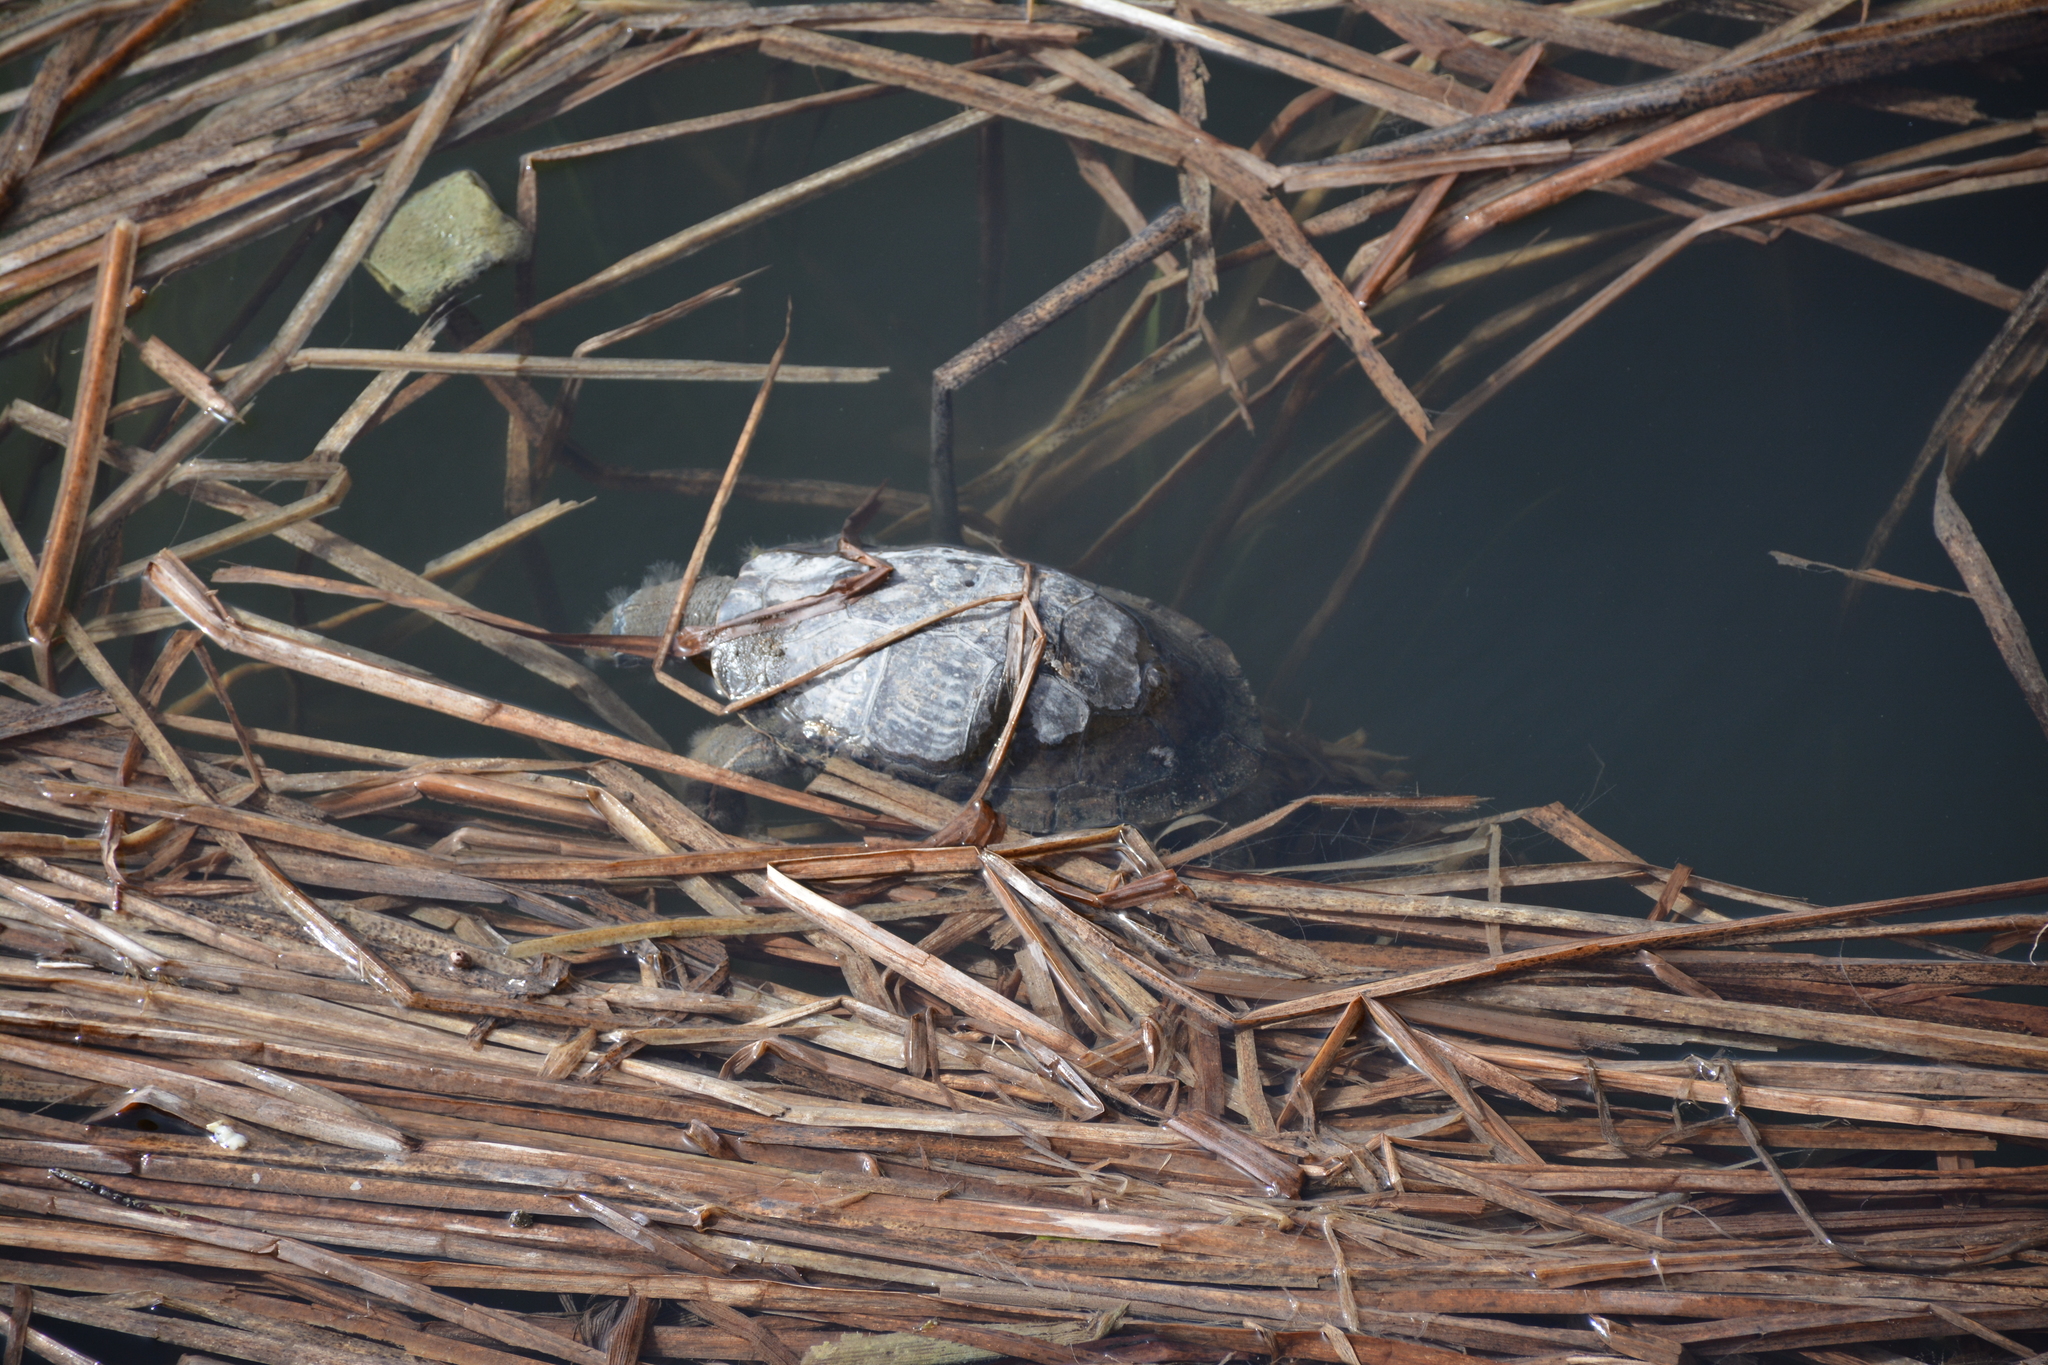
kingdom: Animalia
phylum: Chordata
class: Testudines
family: Geoemydidae
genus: Mauremys
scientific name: Mauremys caspica
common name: Caspian turtle
